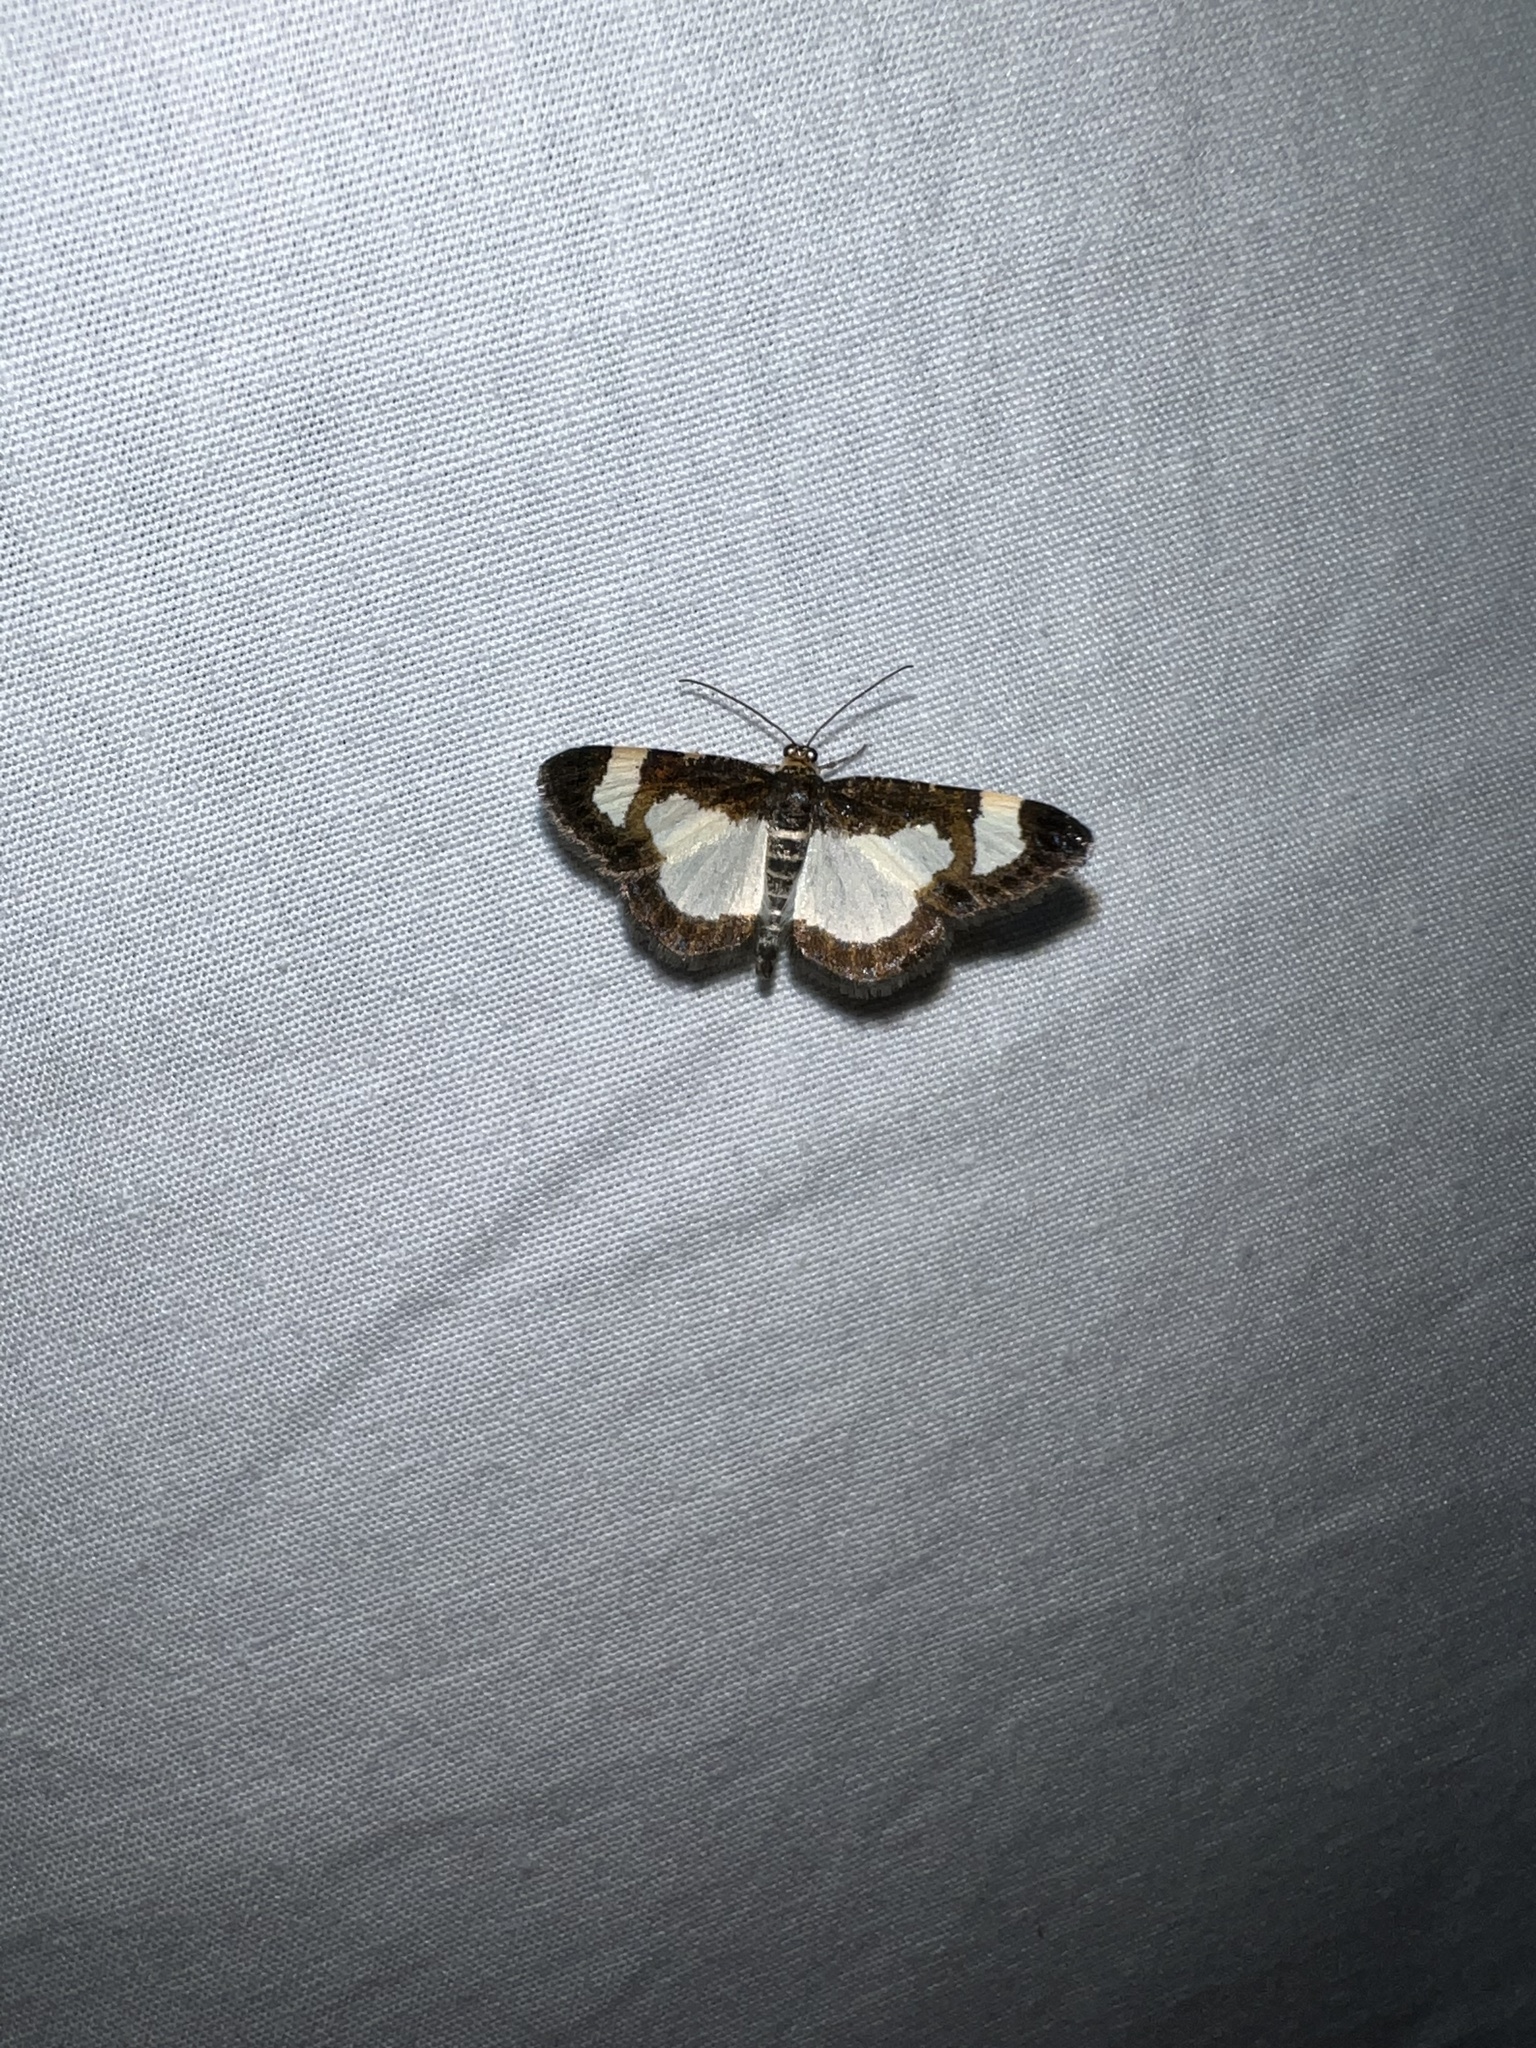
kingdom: Animalia
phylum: Arthropoda
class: Insecta
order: Lepidoptera
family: Geometridae
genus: Heliomata
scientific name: Heliomata cycladata
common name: Common spring moth
